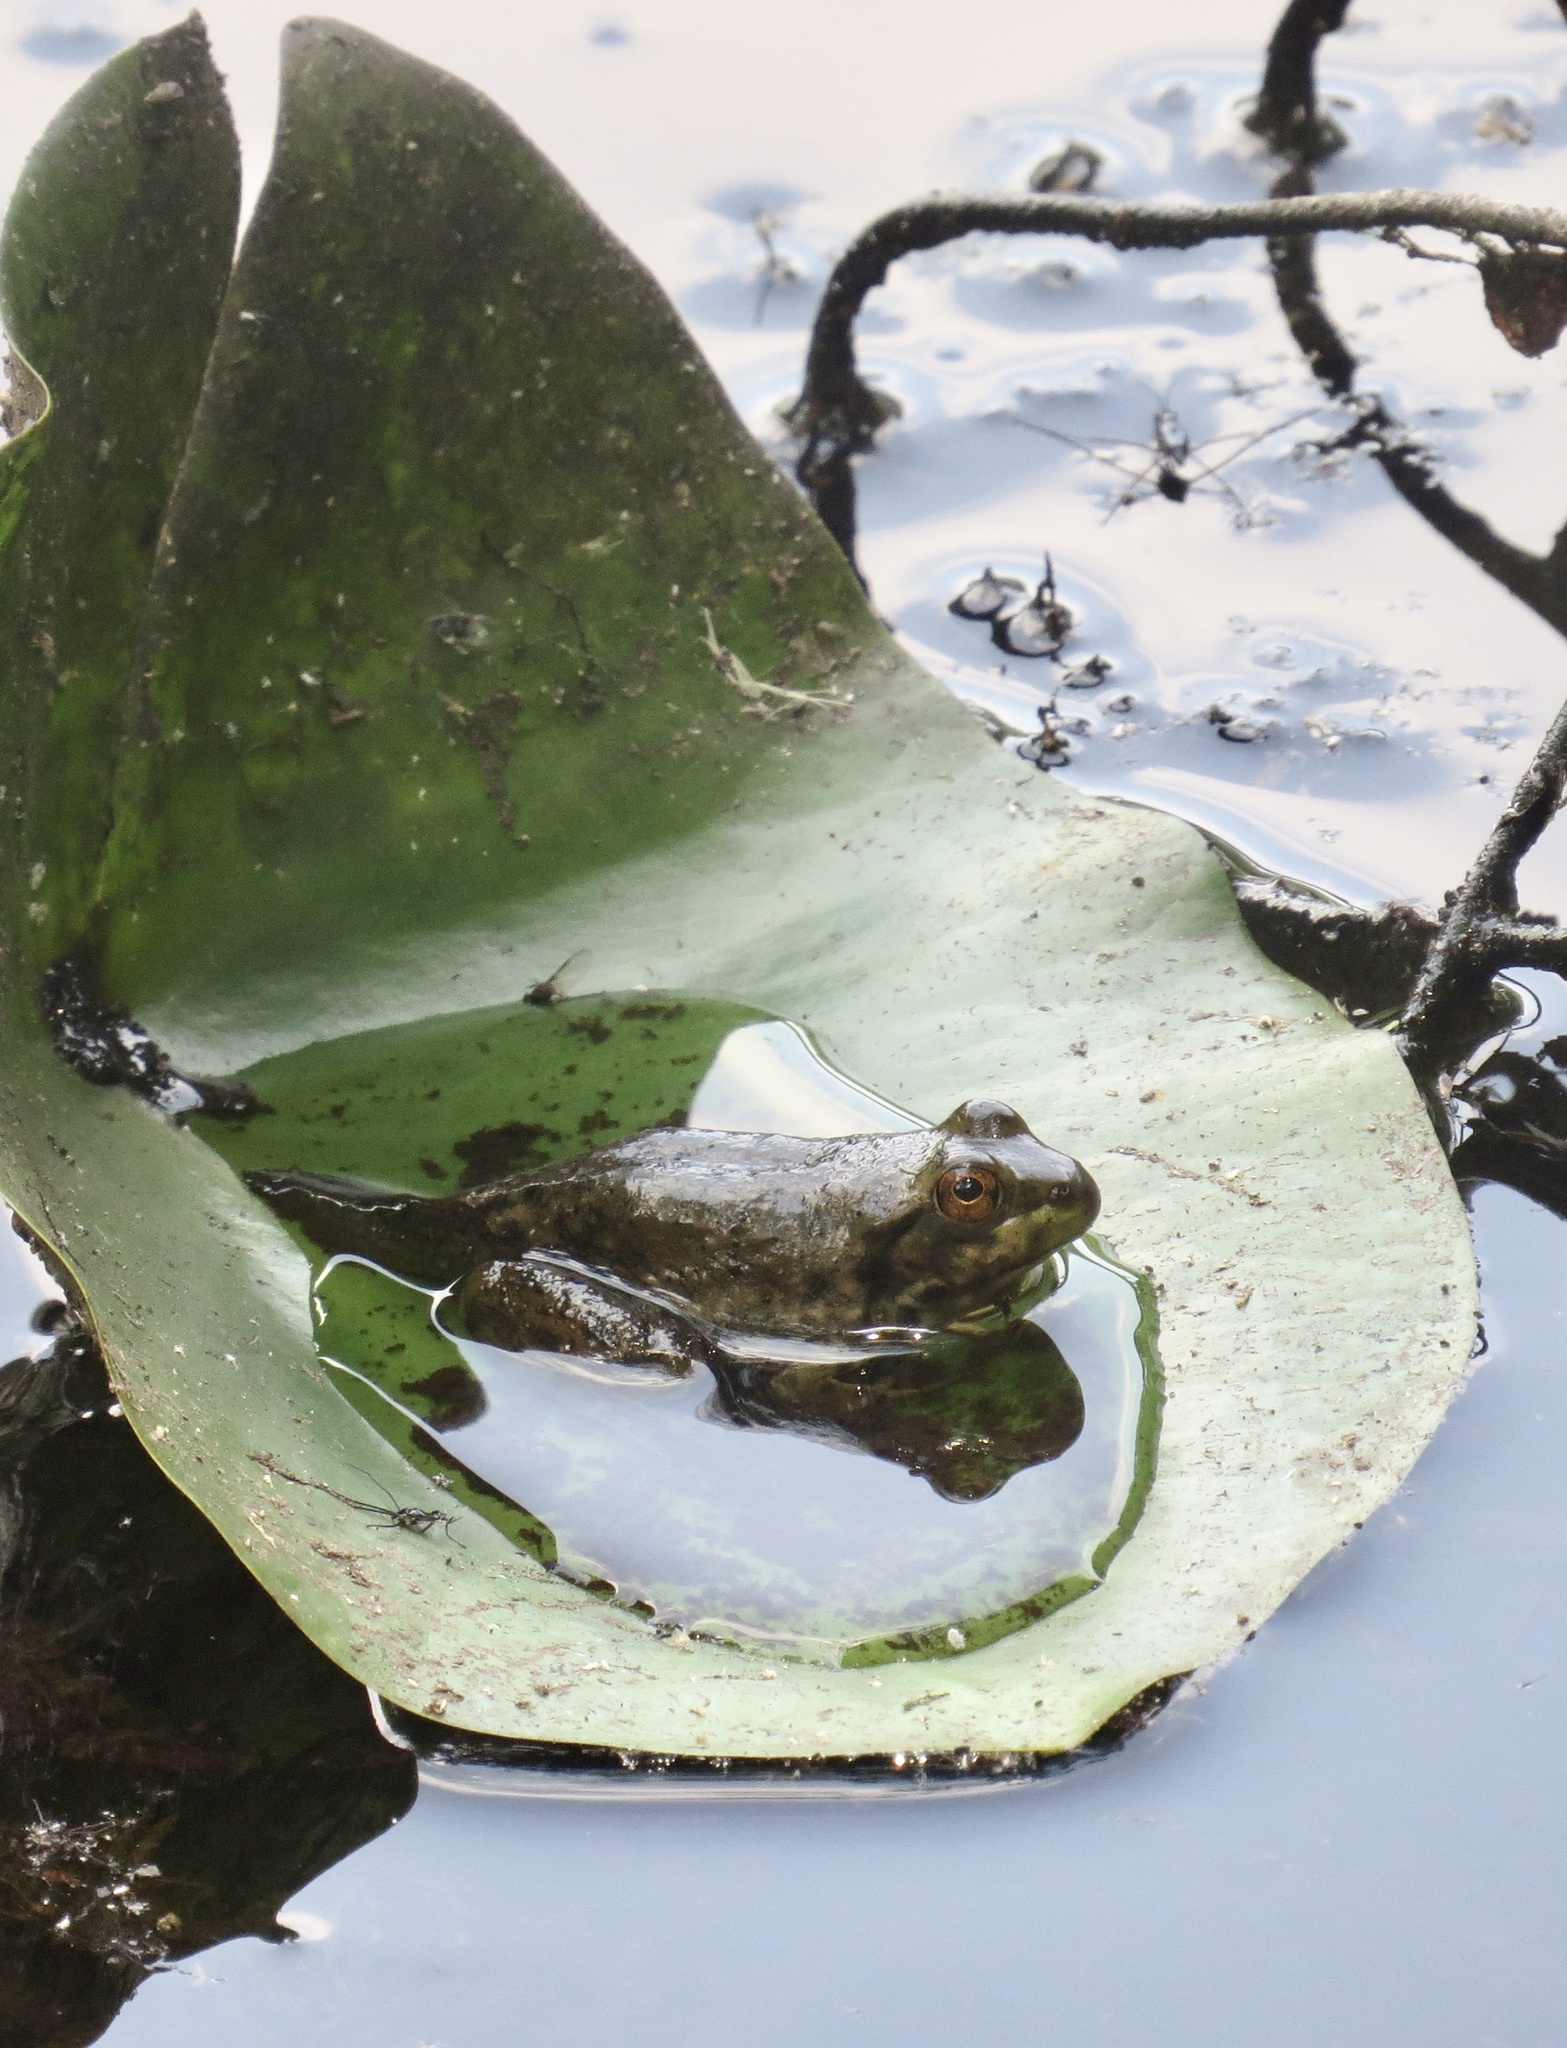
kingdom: Animalia
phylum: Chordata
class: Amphibia
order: Anura
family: Ranidae
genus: Lithobates
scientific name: Lithobates catesbeianus
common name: American bullfrog
